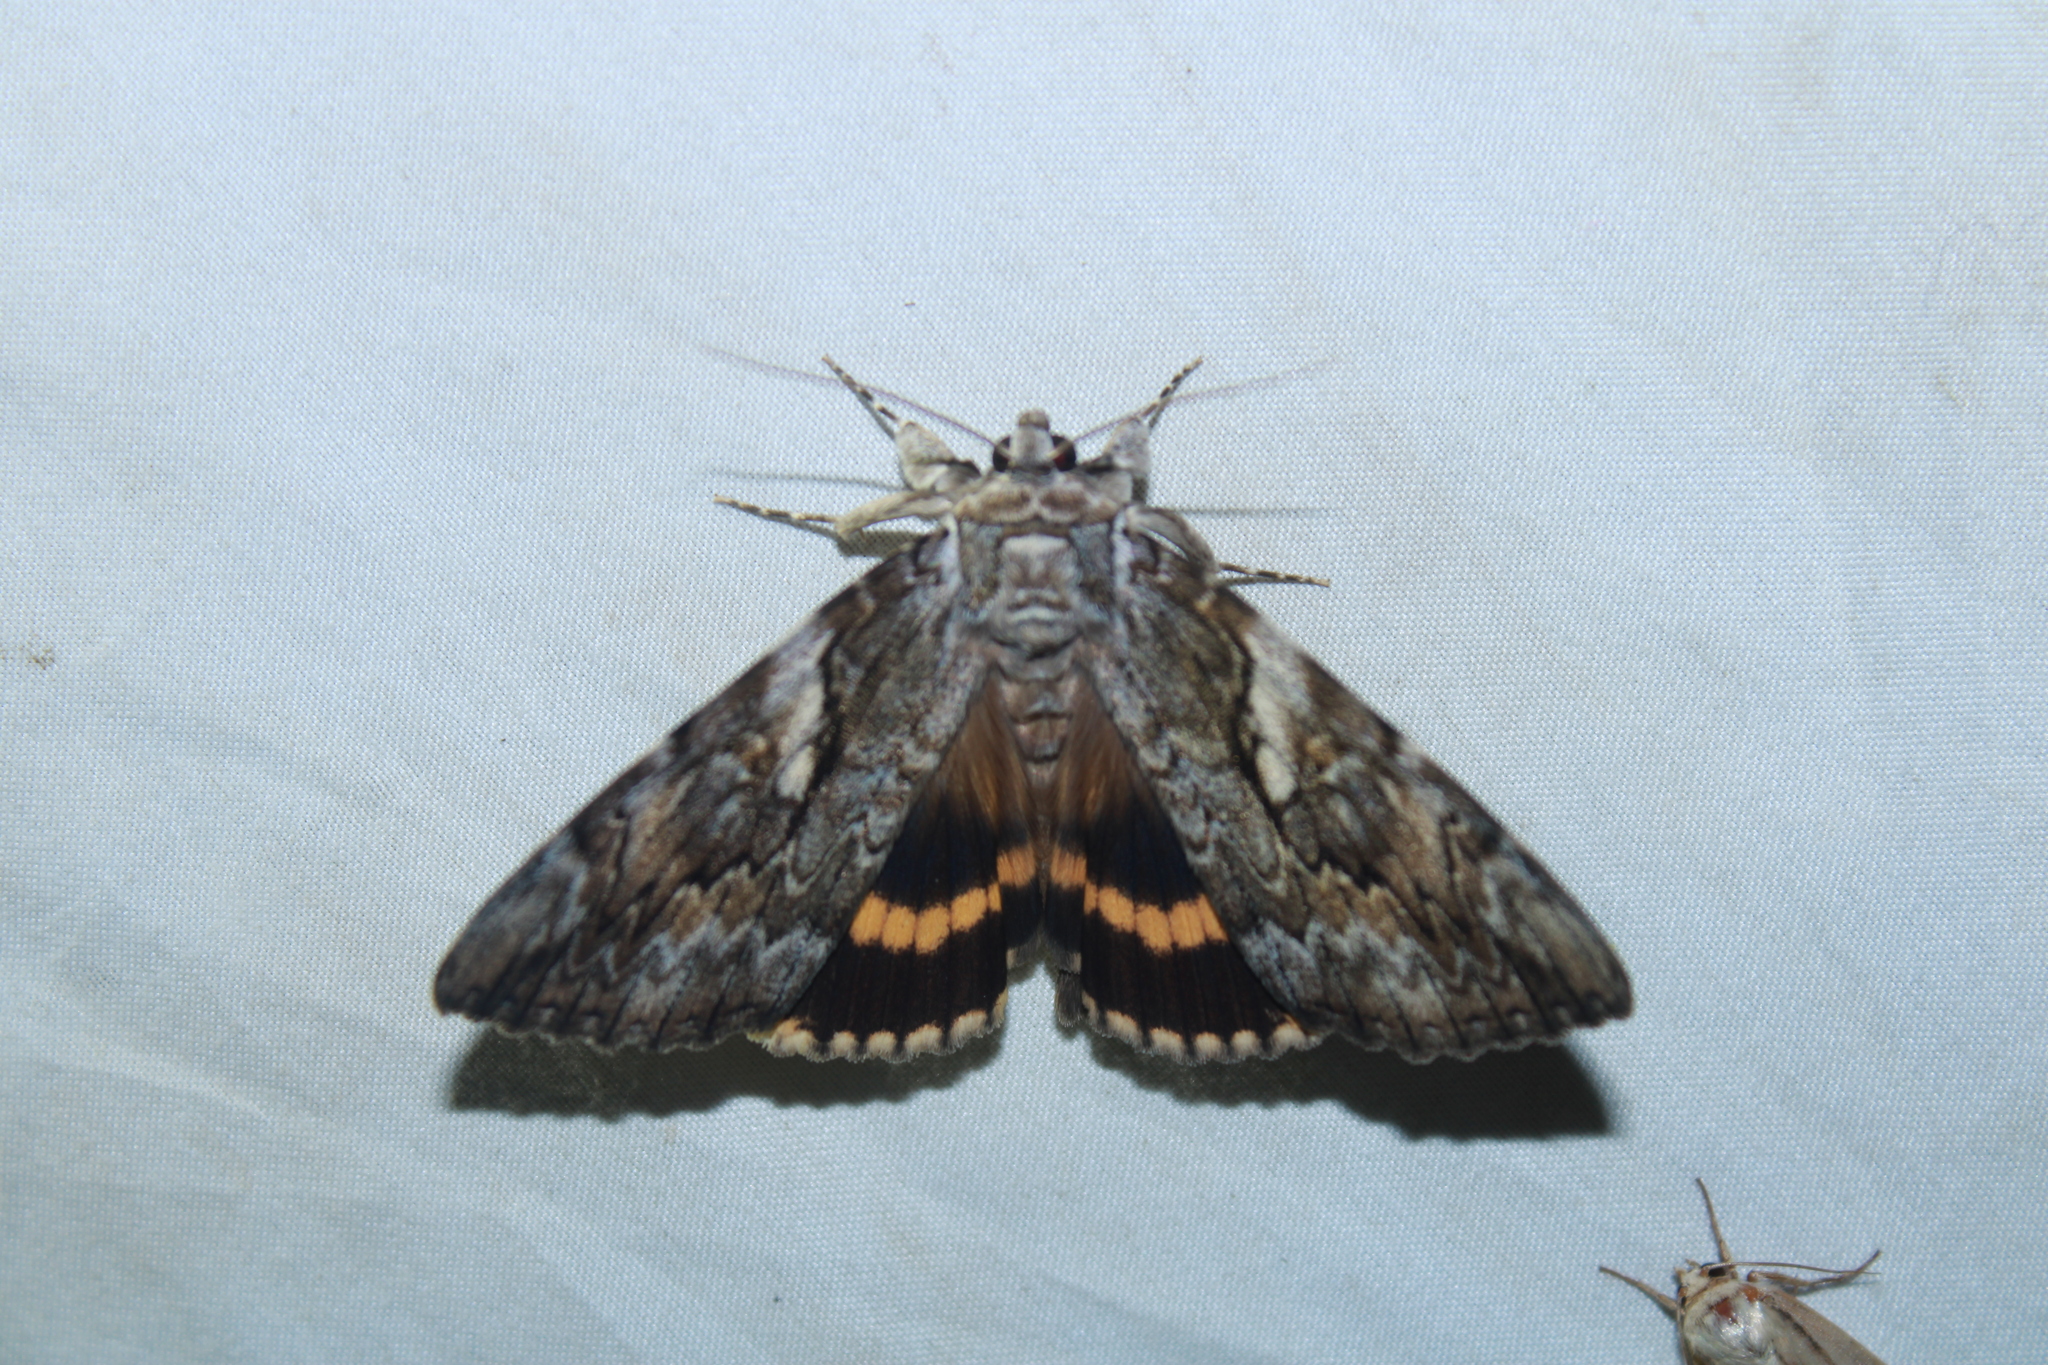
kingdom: Animalia
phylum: Arthropoda
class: Insecta
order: Lepidoptera
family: Erebidae
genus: Catocala
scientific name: Catocala cerogama
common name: Yellow banded underwing
